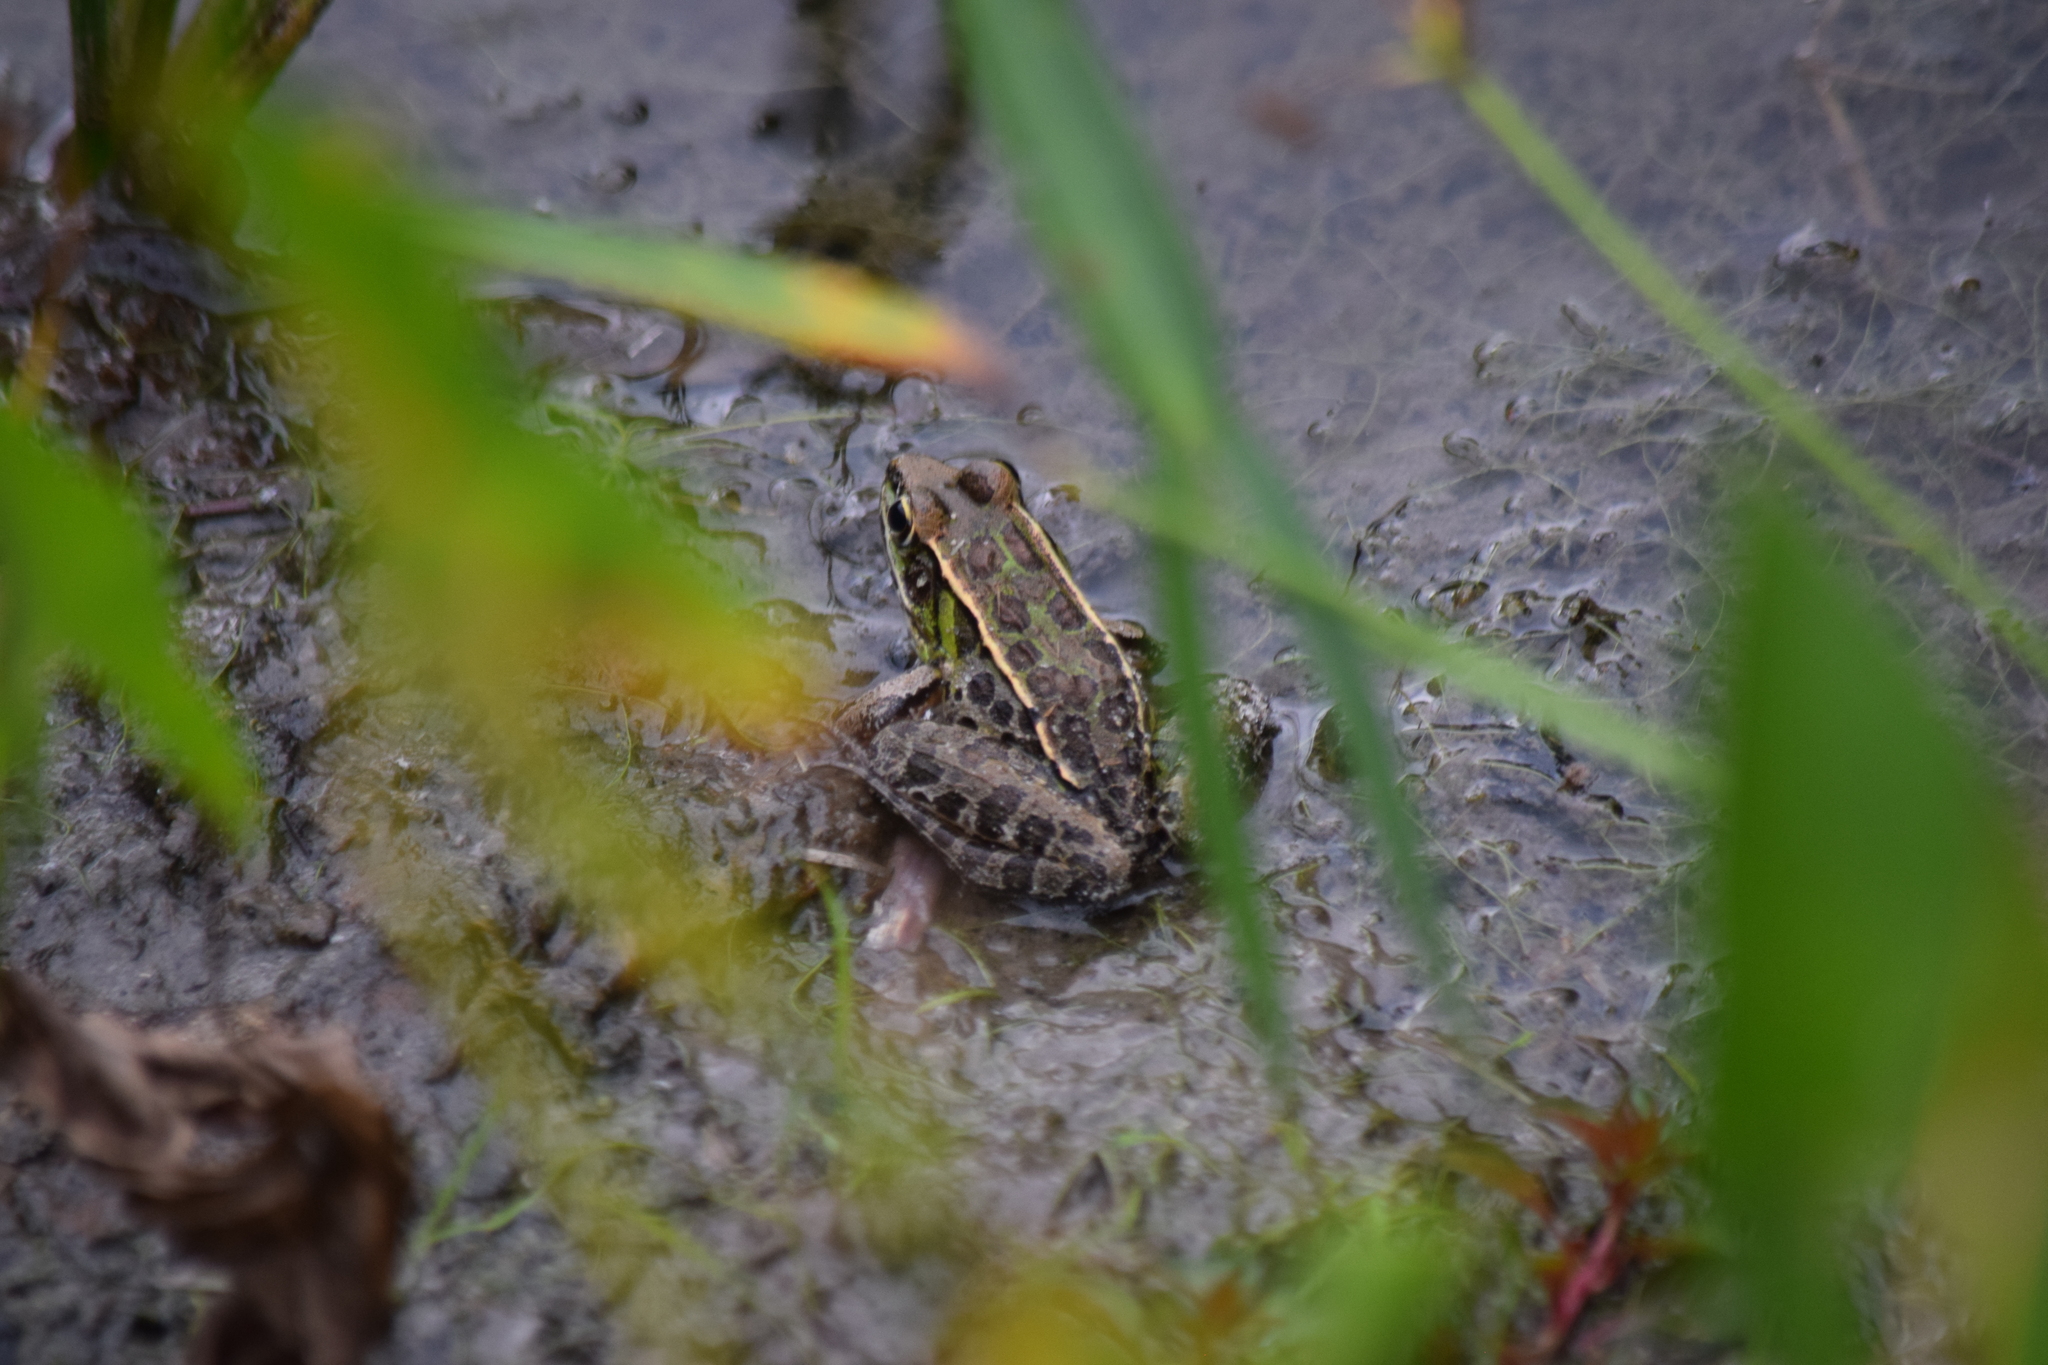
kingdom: Animalia
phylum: Chordata
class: Amphibia
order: Anura
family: Ranidae
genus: Lithobates
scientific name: Lithobates sphenocephalus
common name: Southern leopard frog
